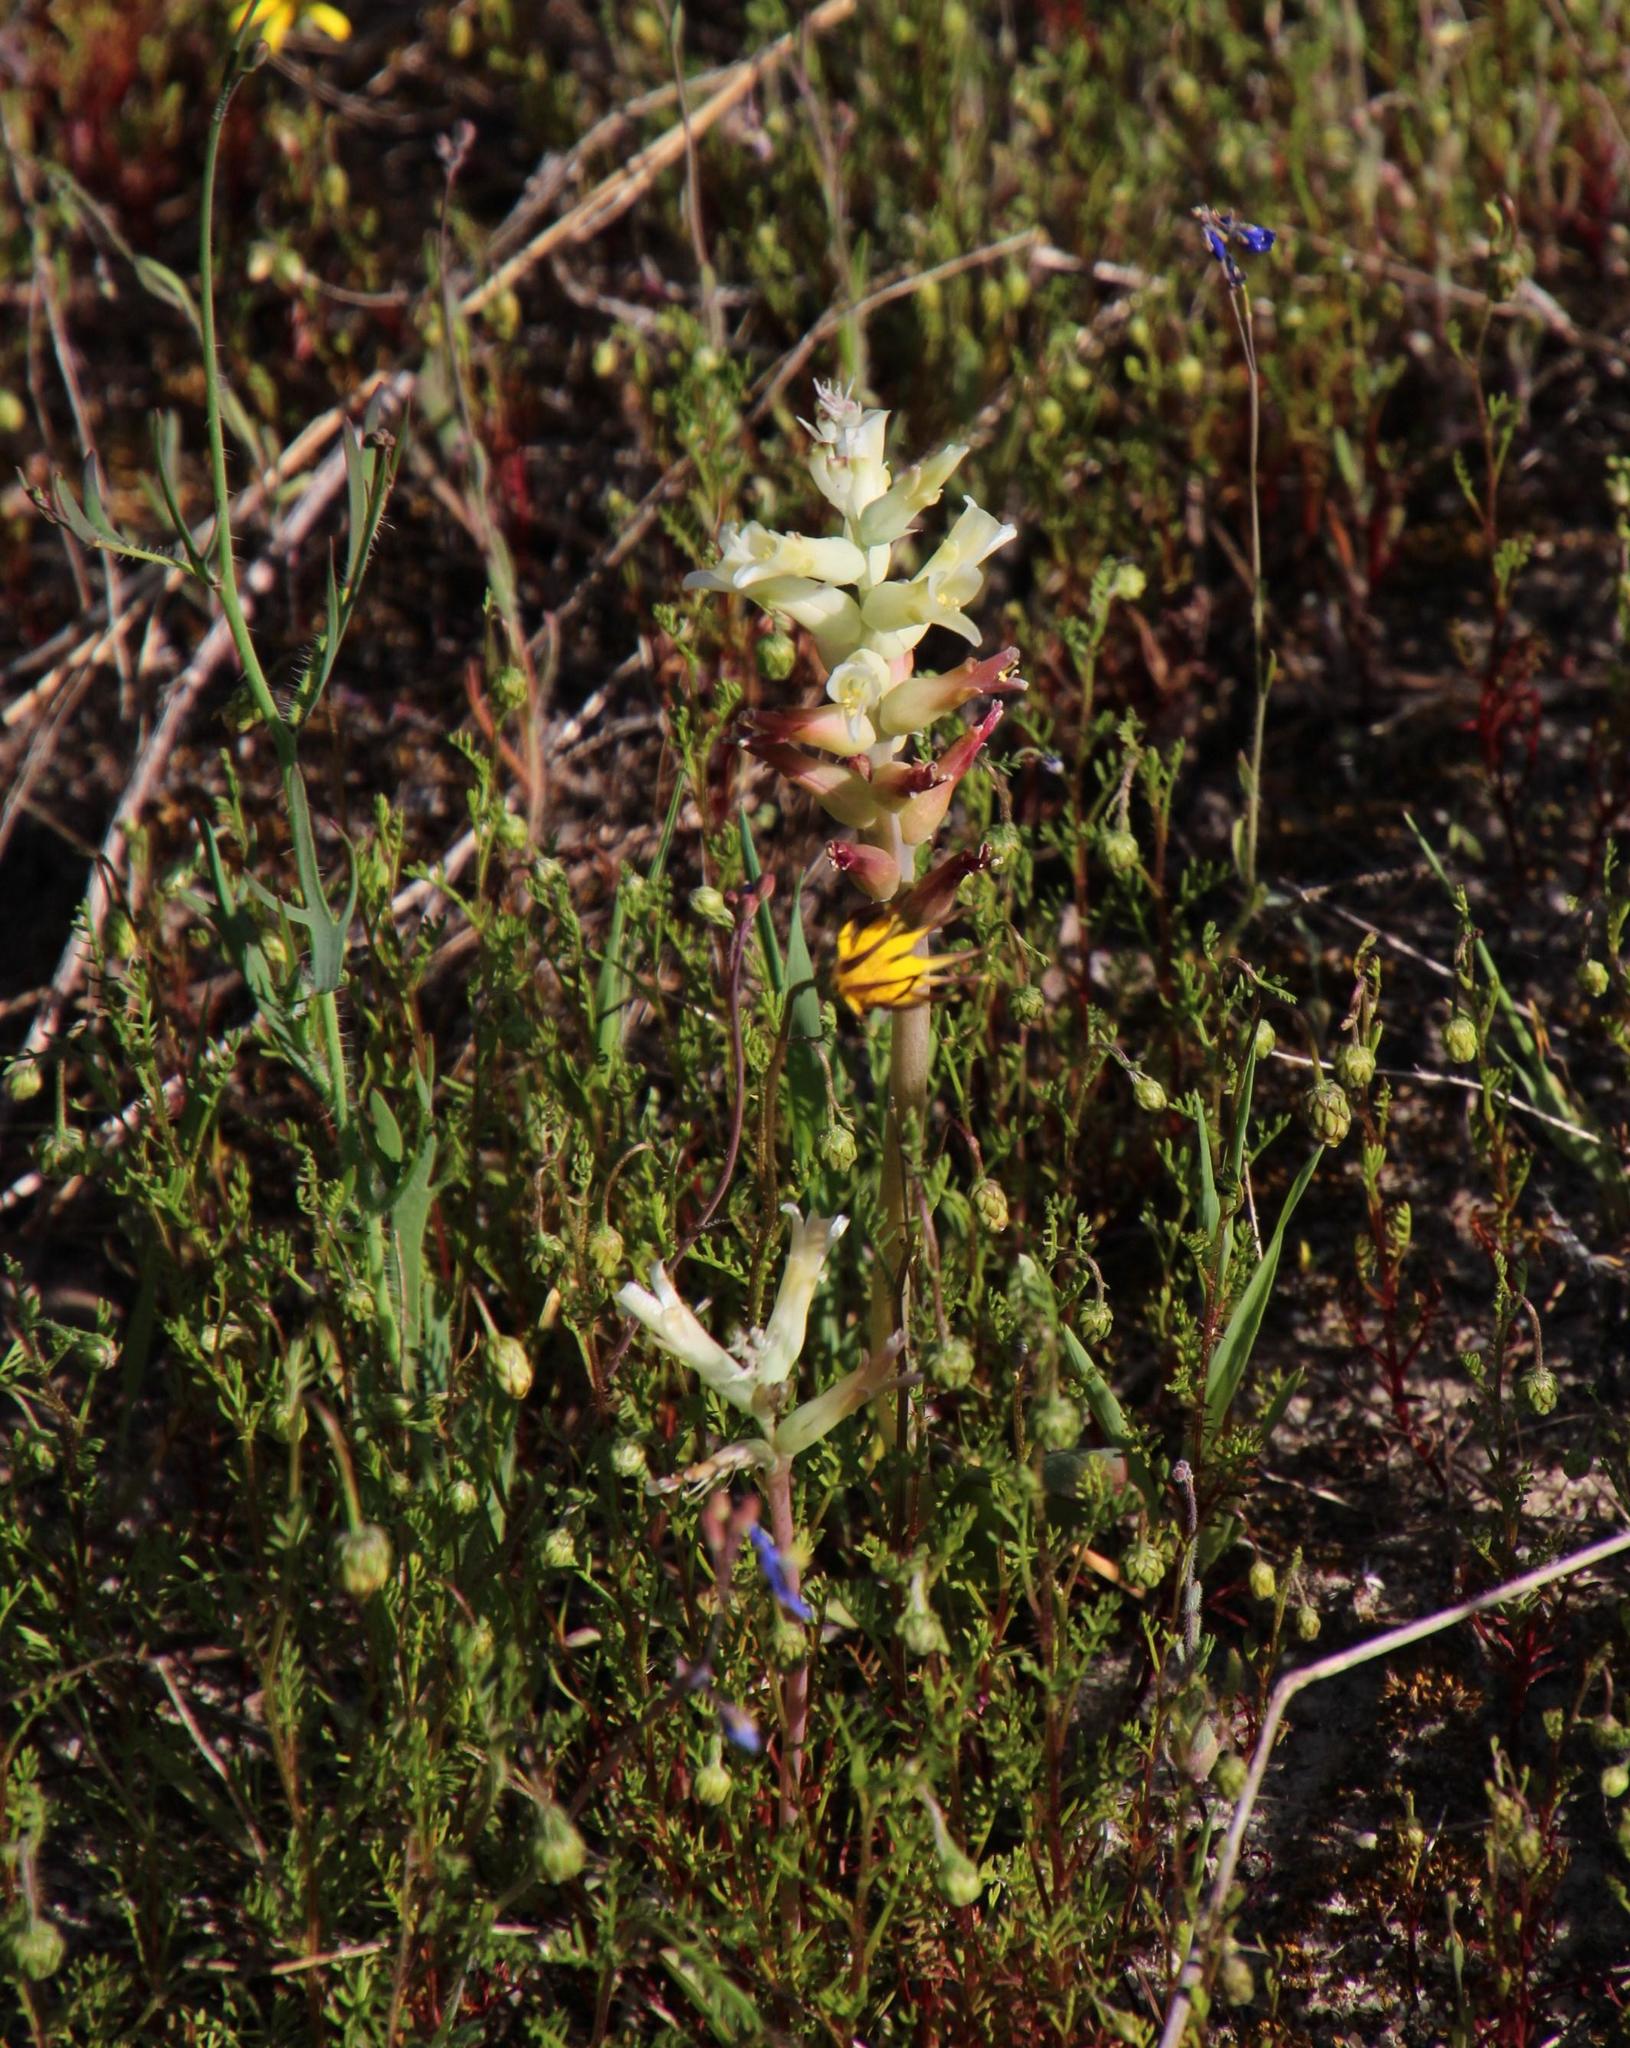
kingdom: Plantae
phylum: Tracheophyta
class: Liliopsida
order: Asparagales
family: Asparagaceae
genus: Lachenalia
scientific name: Lachenalia orchioides
